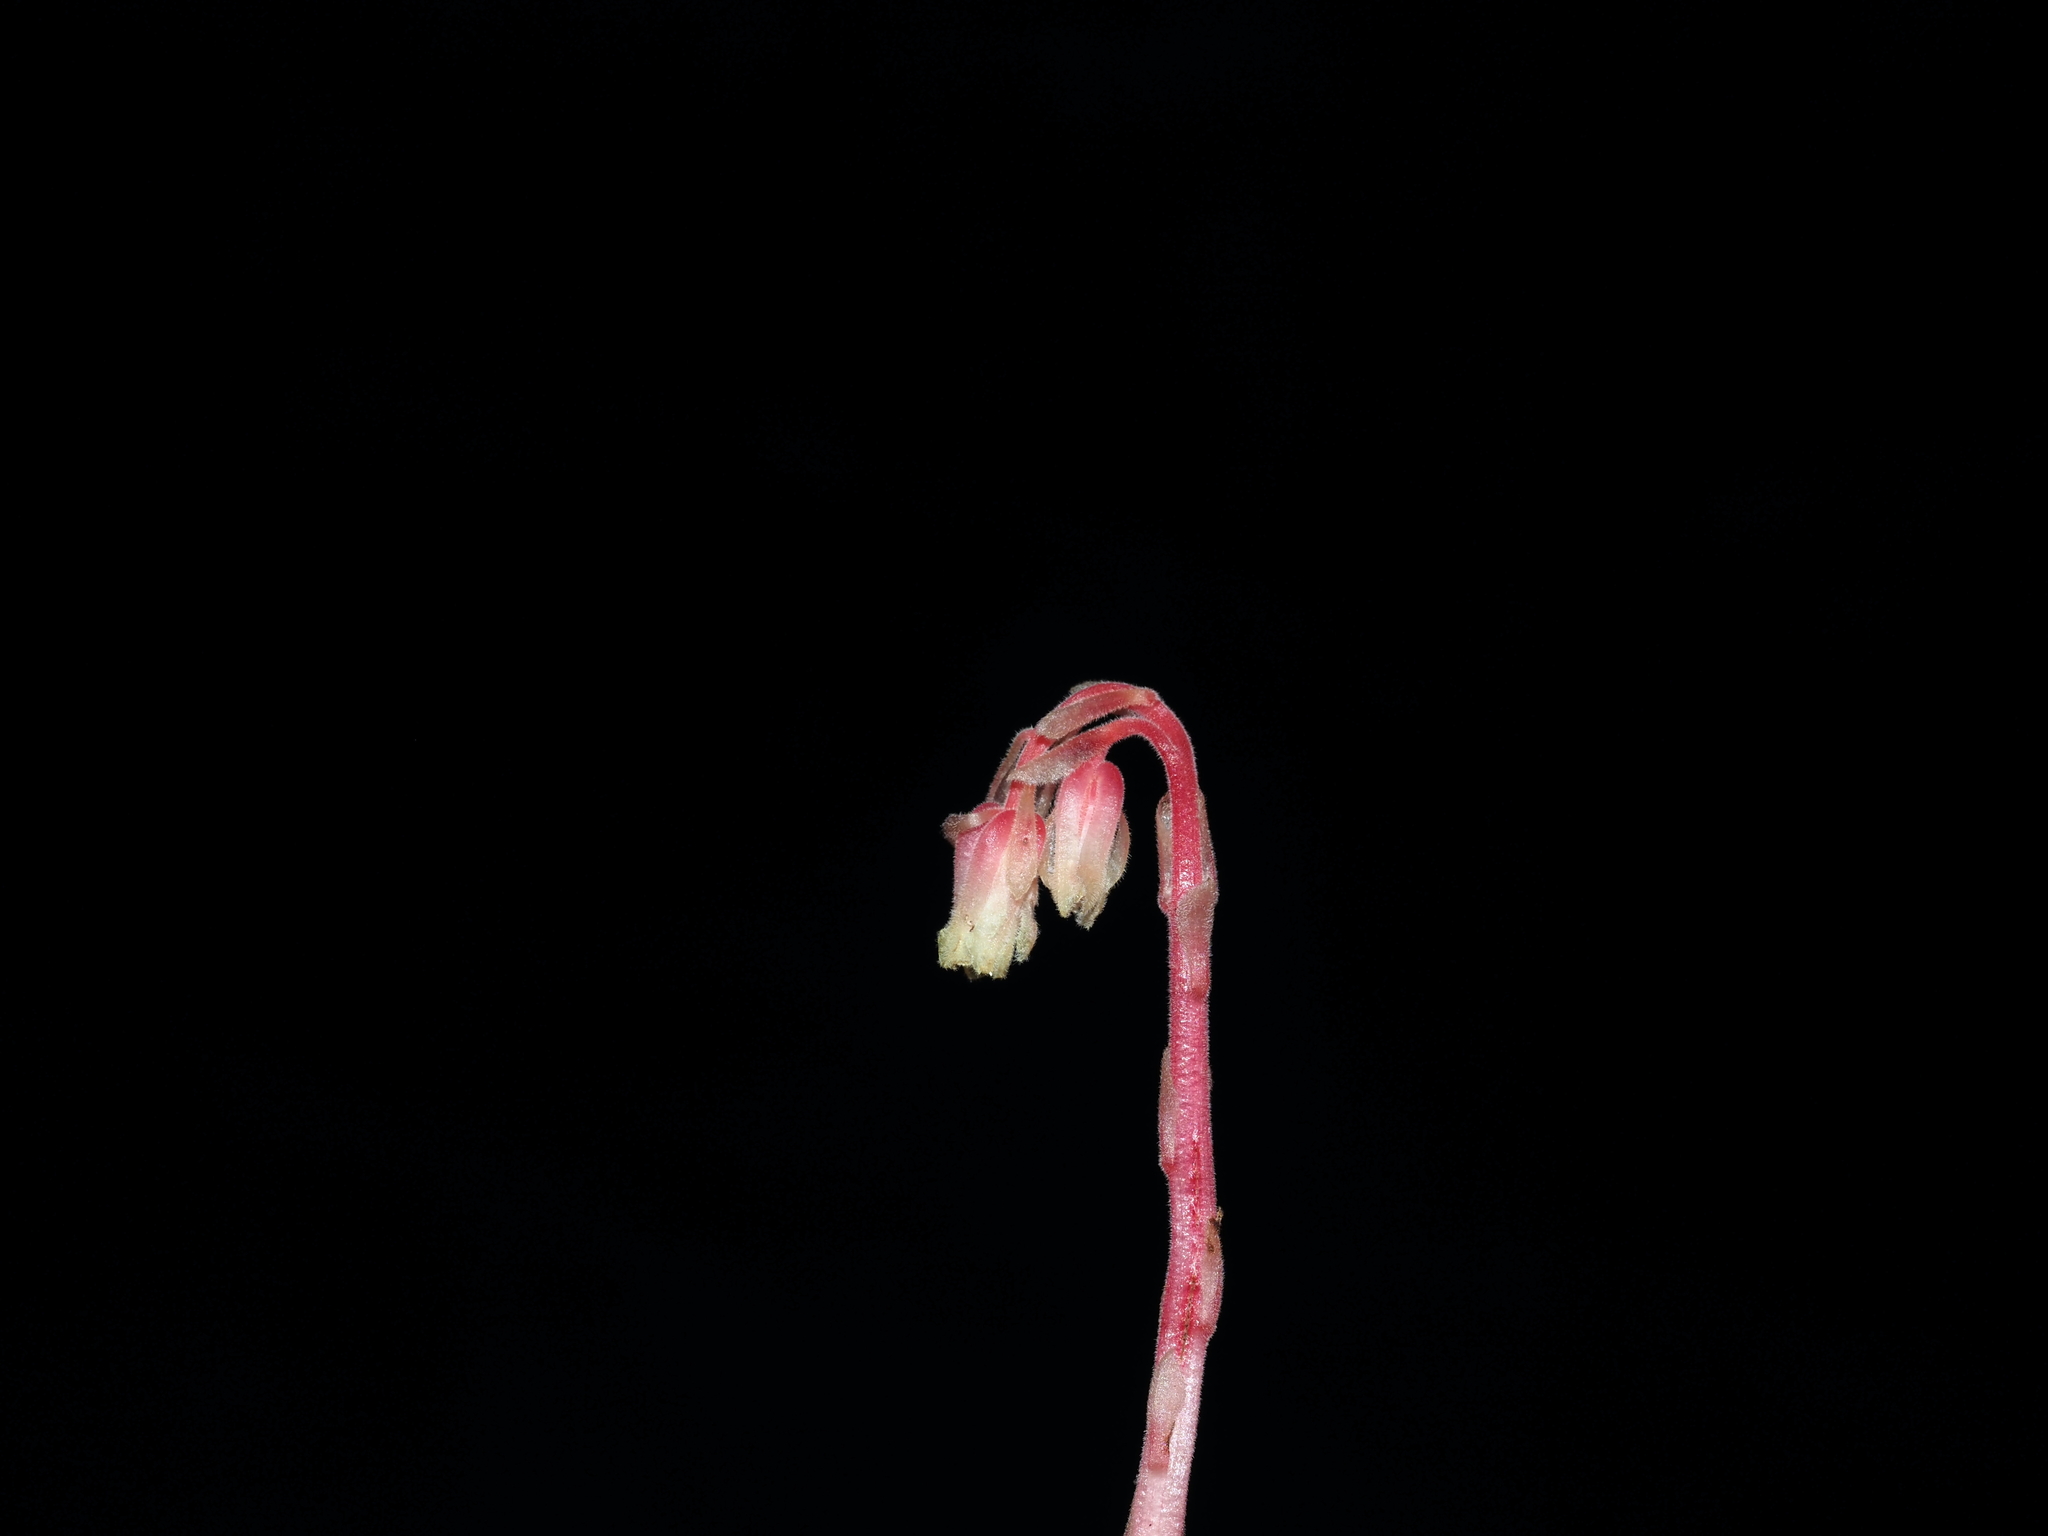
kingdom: Plantae
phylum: Tracheophyta
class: Magnoliopsida
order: Ericales
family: Ericaceae
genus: Hypopitys
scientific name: Hypopitys monotropa
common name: Yellow bird's-nest
